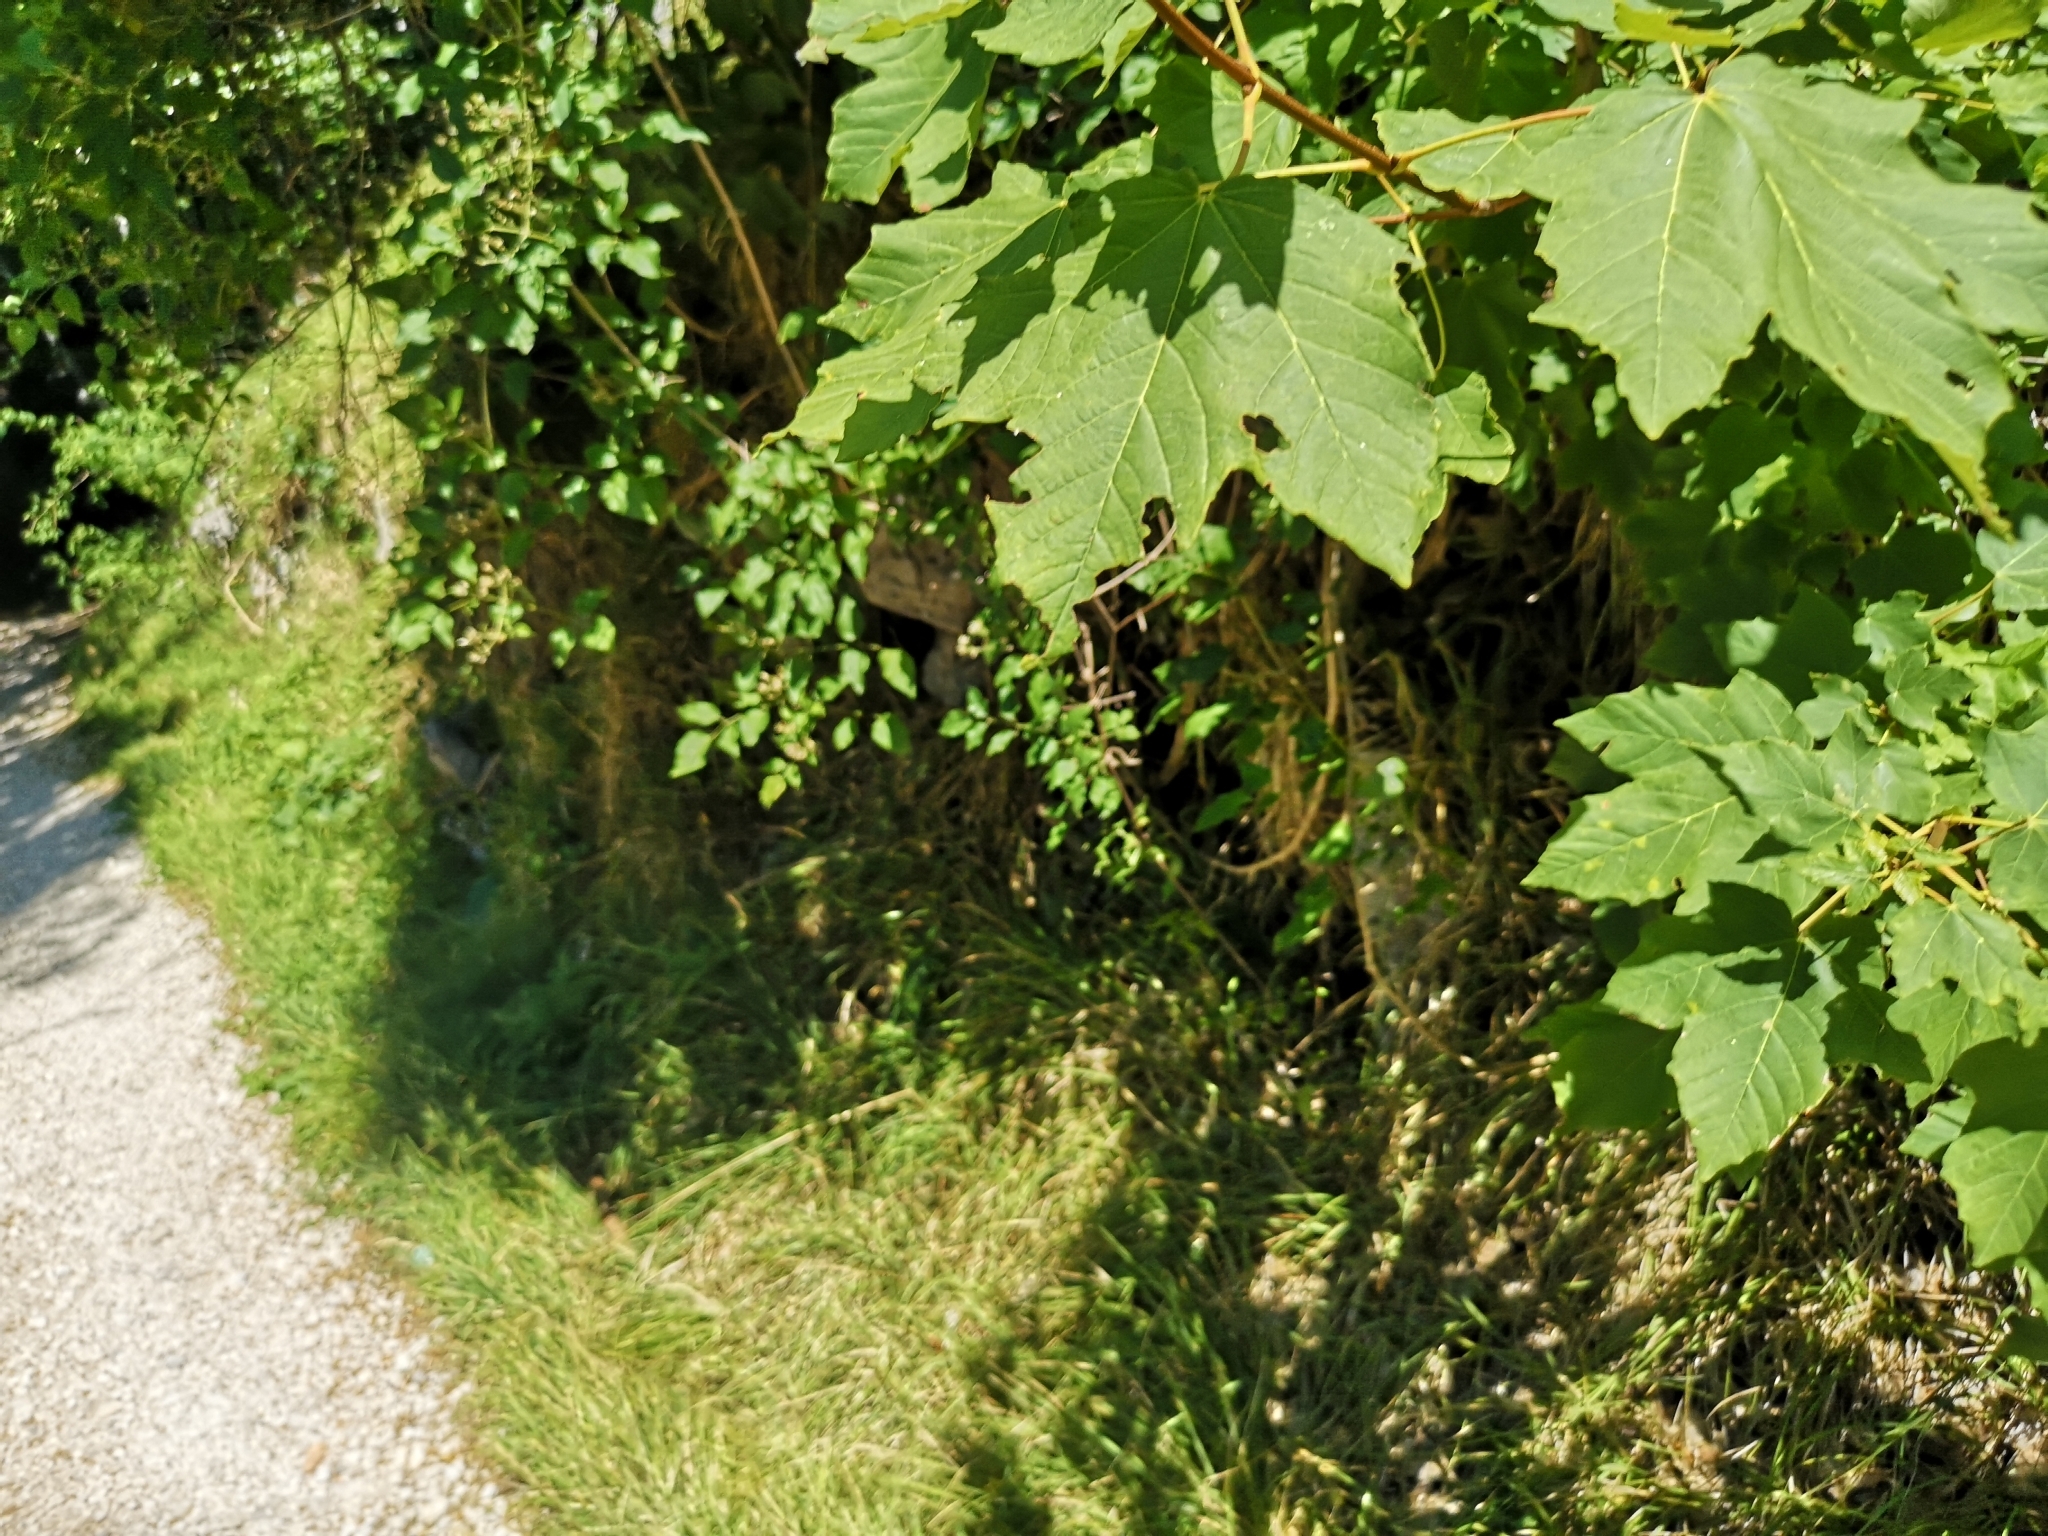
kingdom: Plantae
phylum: Tracheophyta
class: Magnoliopsida
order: Sapindales
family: Sapindaceae
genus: Acer
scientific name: Acer pseudoplatanus
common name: Sycamore
